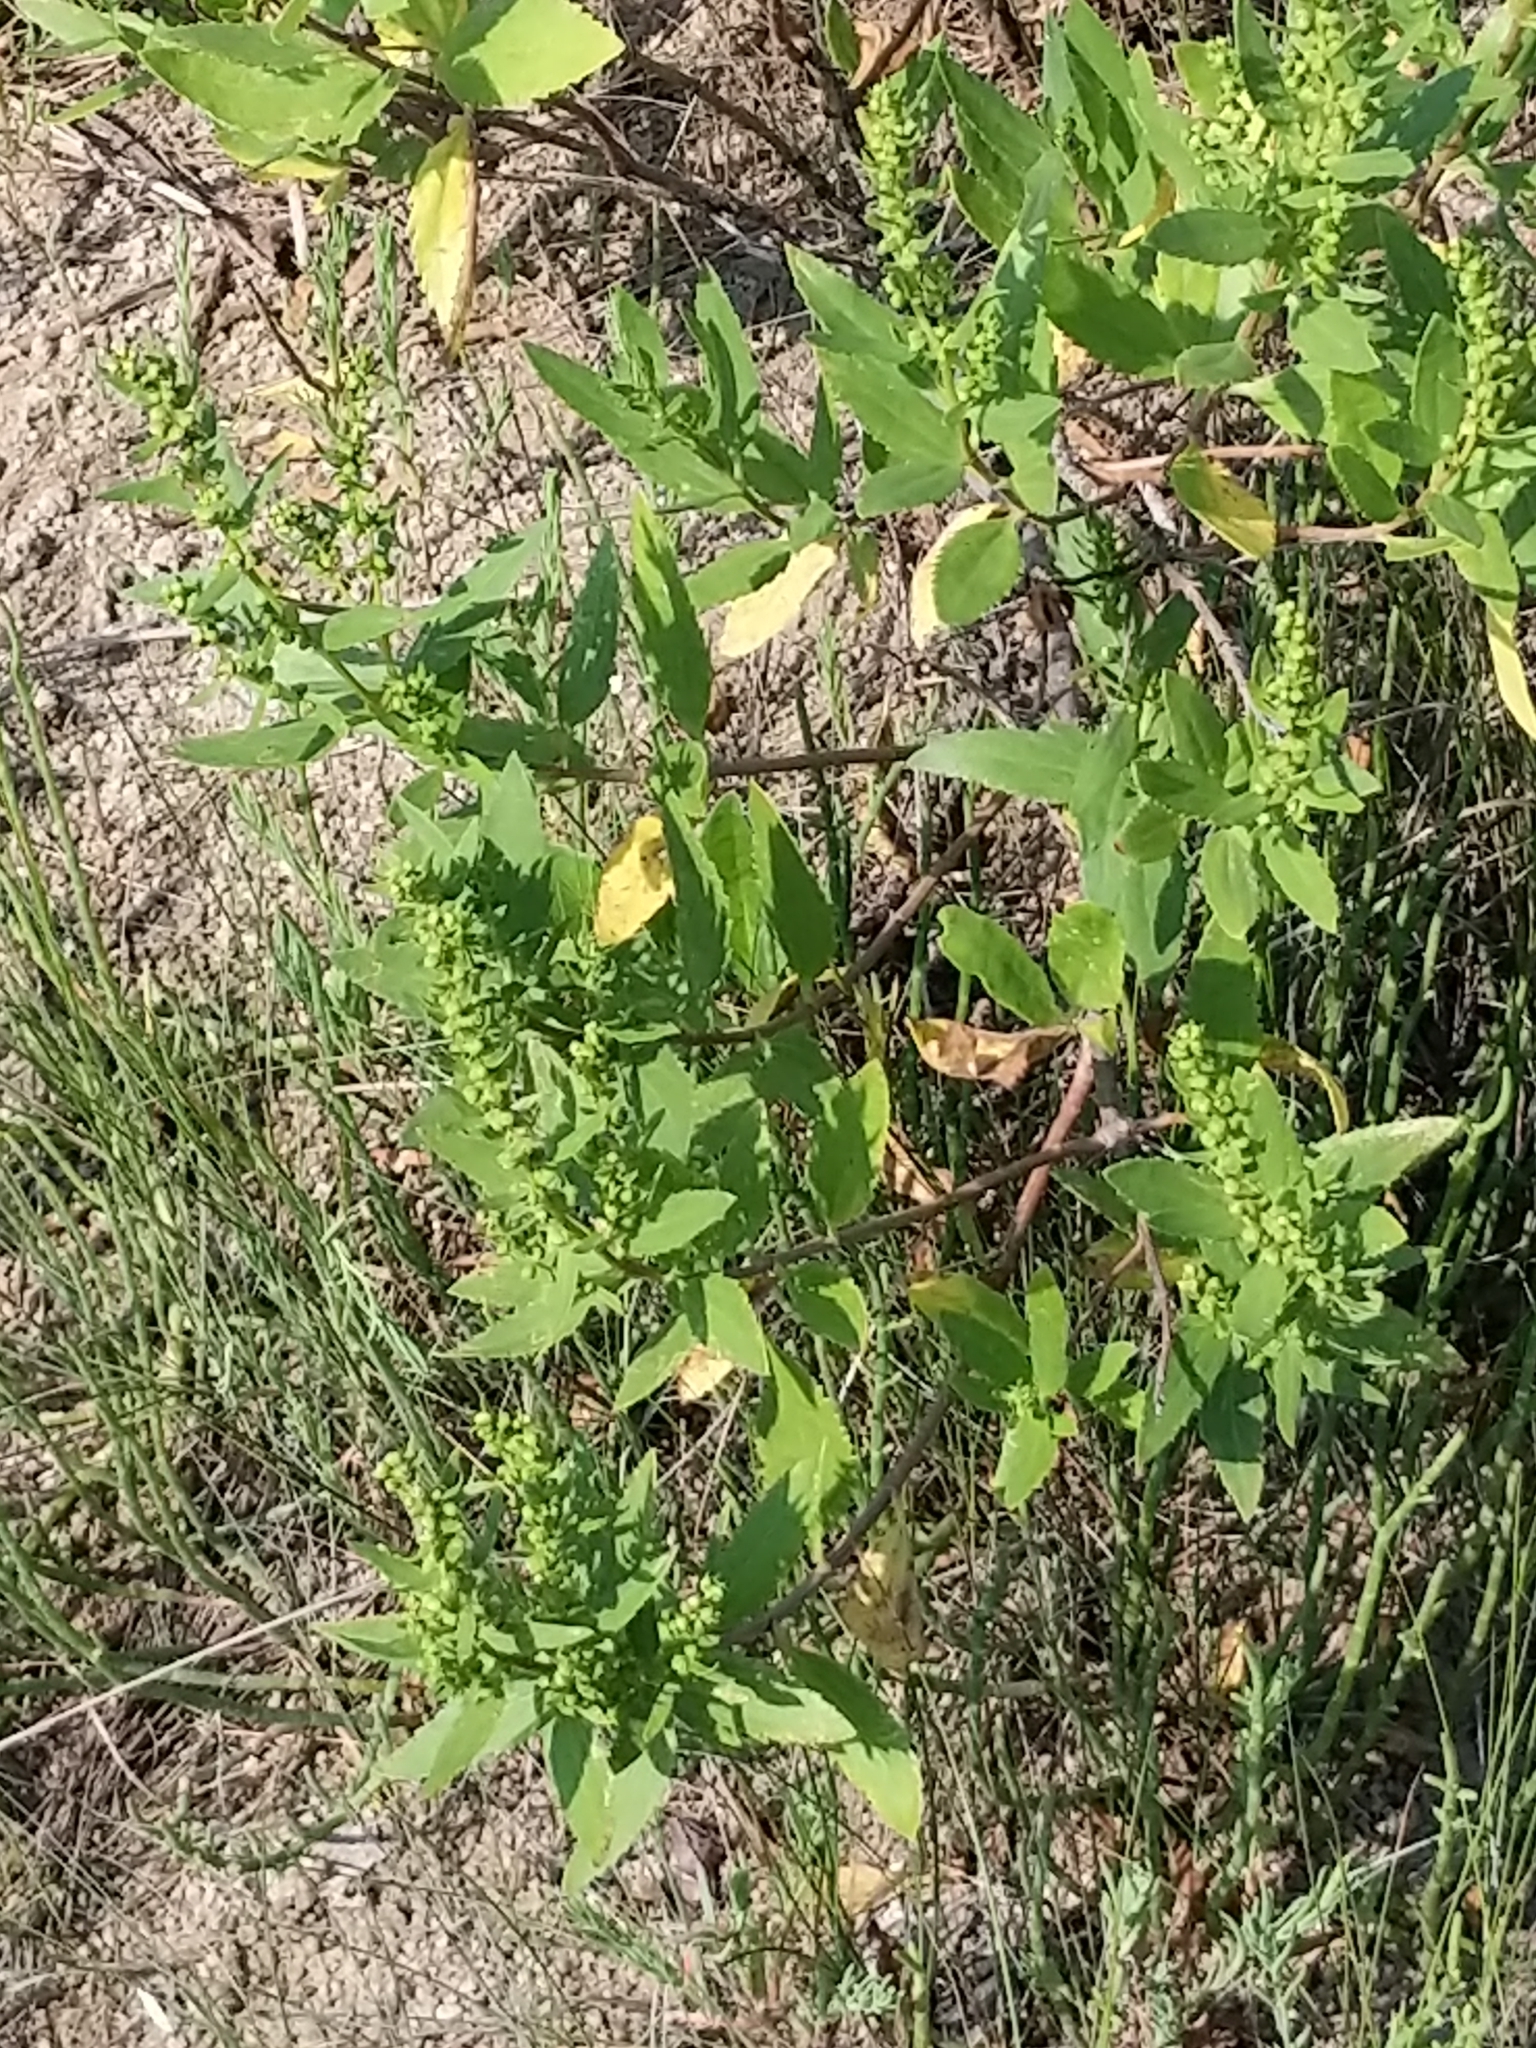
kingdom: Plantae
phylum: Tracheophyta
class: Magnoliopsida
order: Asterales
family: Asteraceae
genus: Iva
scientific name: Iva frutescens
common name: Big-leaved marsh-elder
